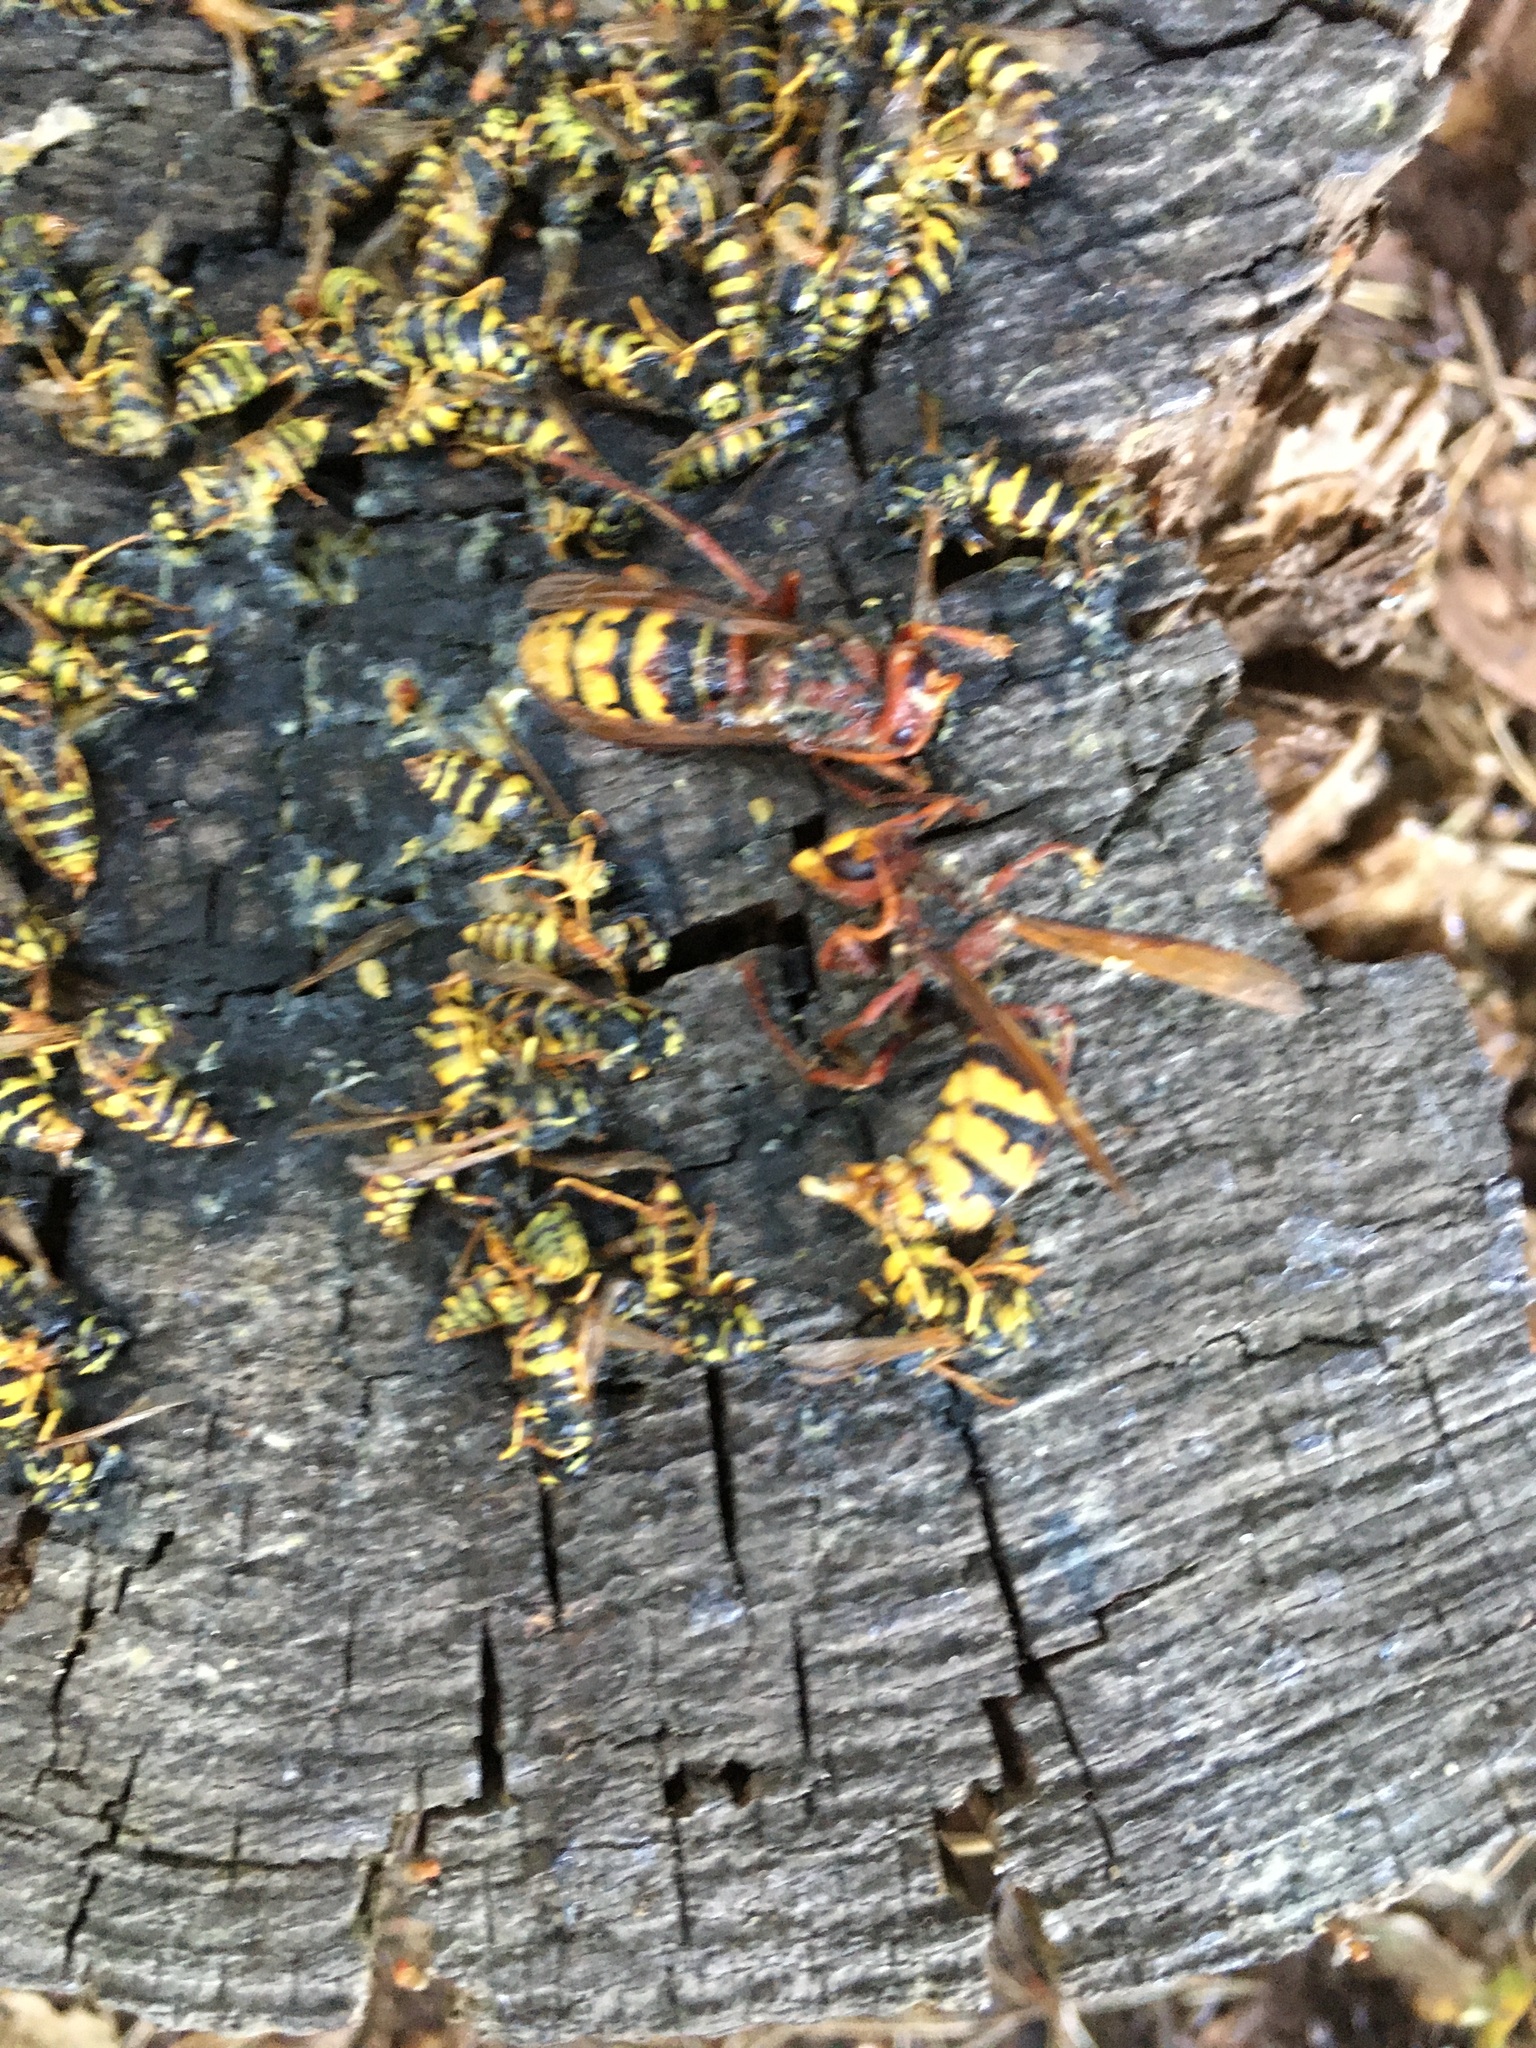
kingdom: Animalia
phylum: Arthropoda
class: Insecta
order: Hymenoptera
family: Vespidae
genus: Vespa
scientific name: Vespa crabro
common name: Hornet
